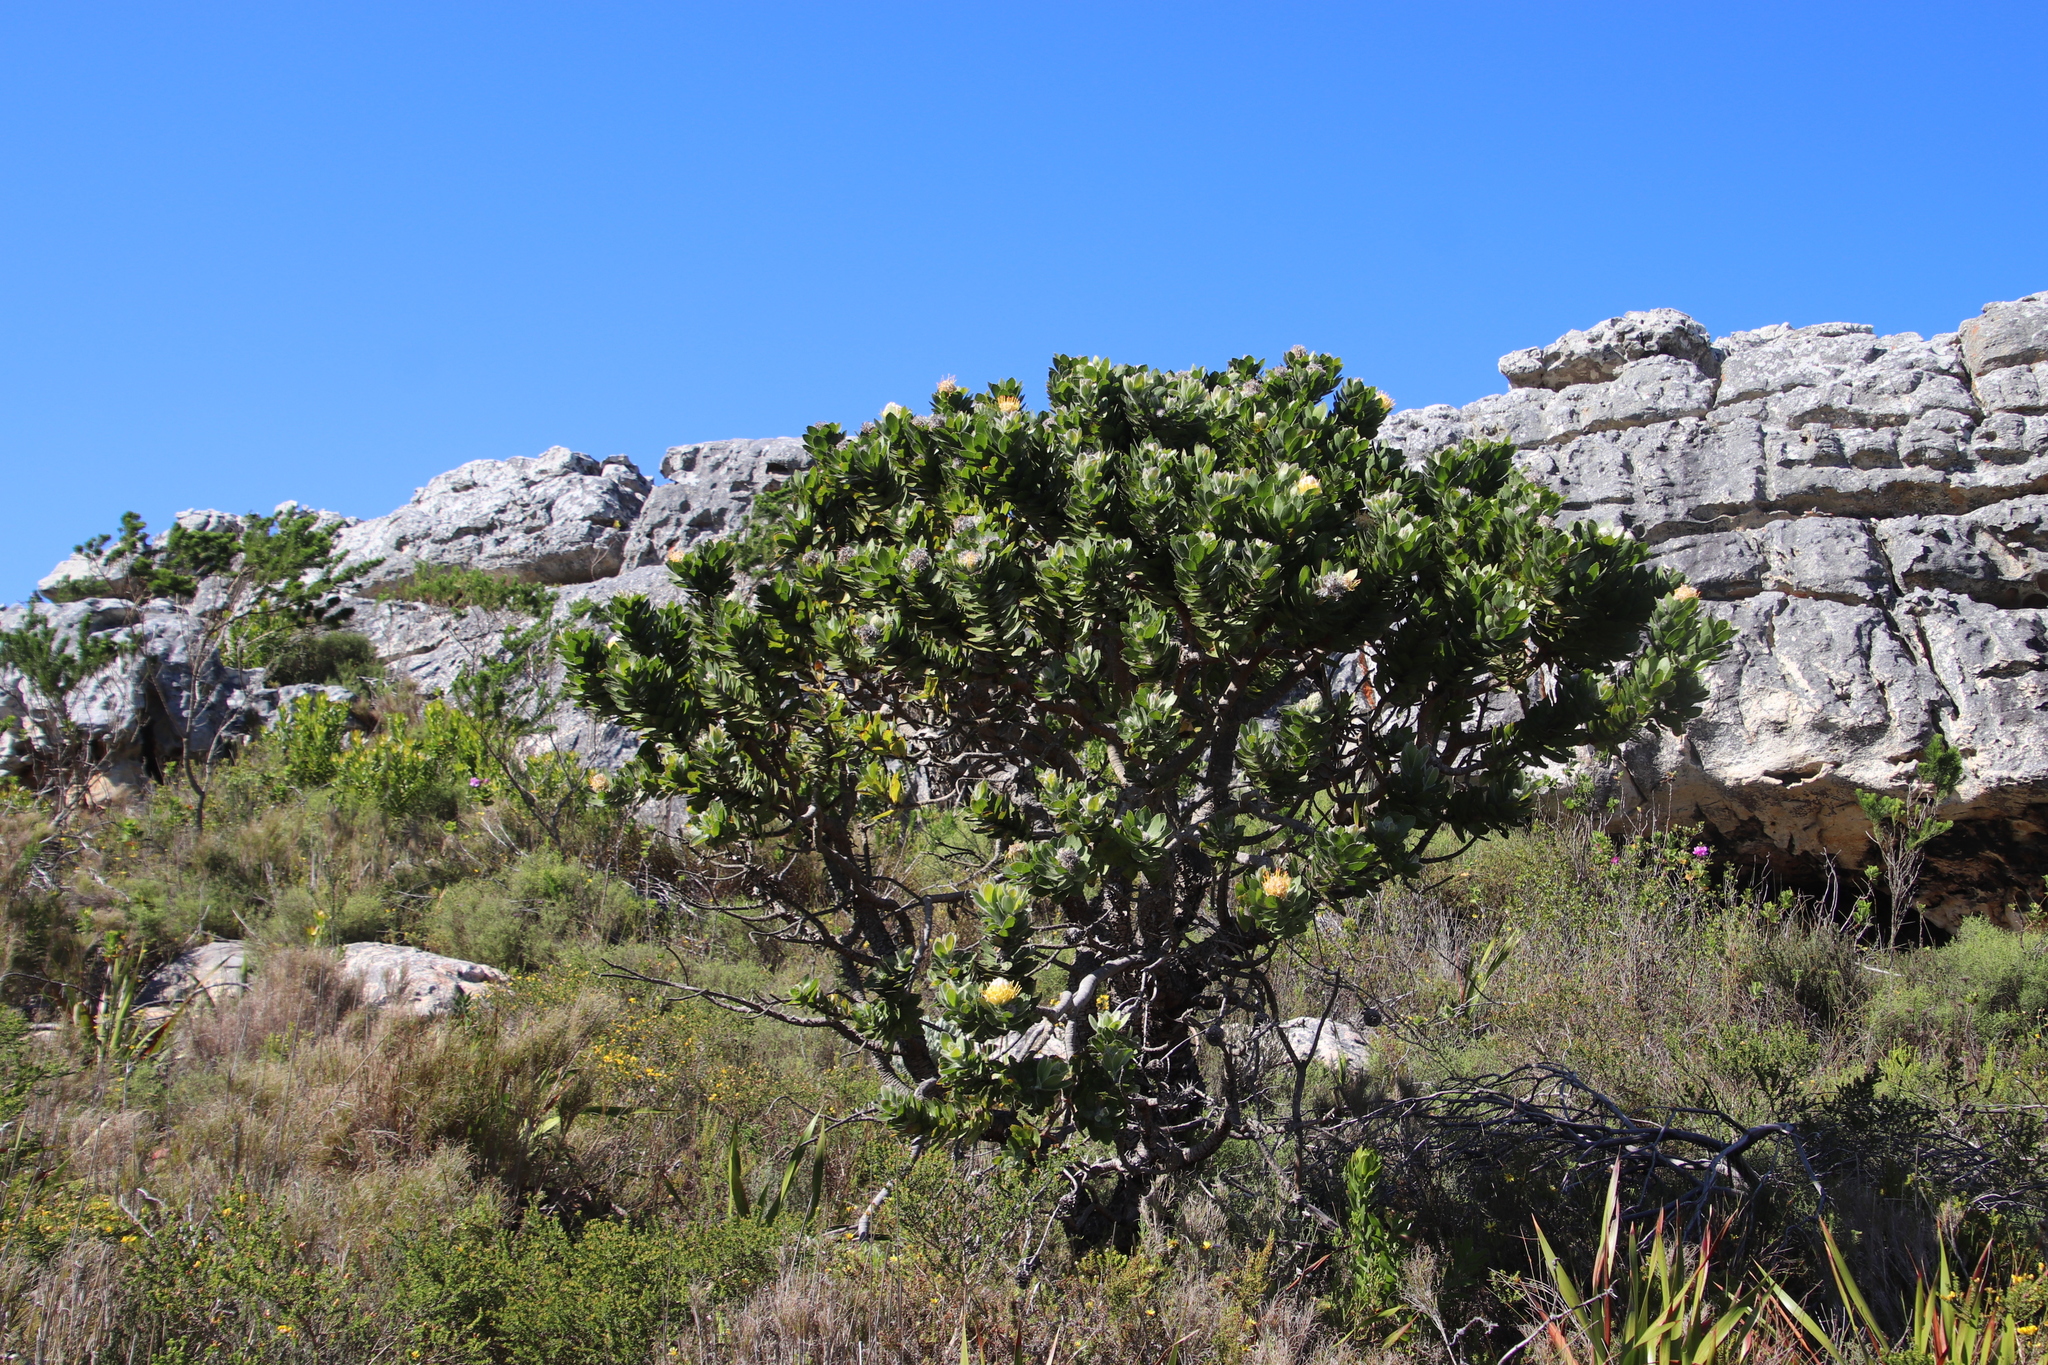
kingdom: Plantae
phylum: Tracheophyta
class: Magnoliopsida
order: Proteales
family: Proteaceae
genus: Leucospermum
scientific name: Leucospermum conocarpodendron
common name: Tree pincushion
